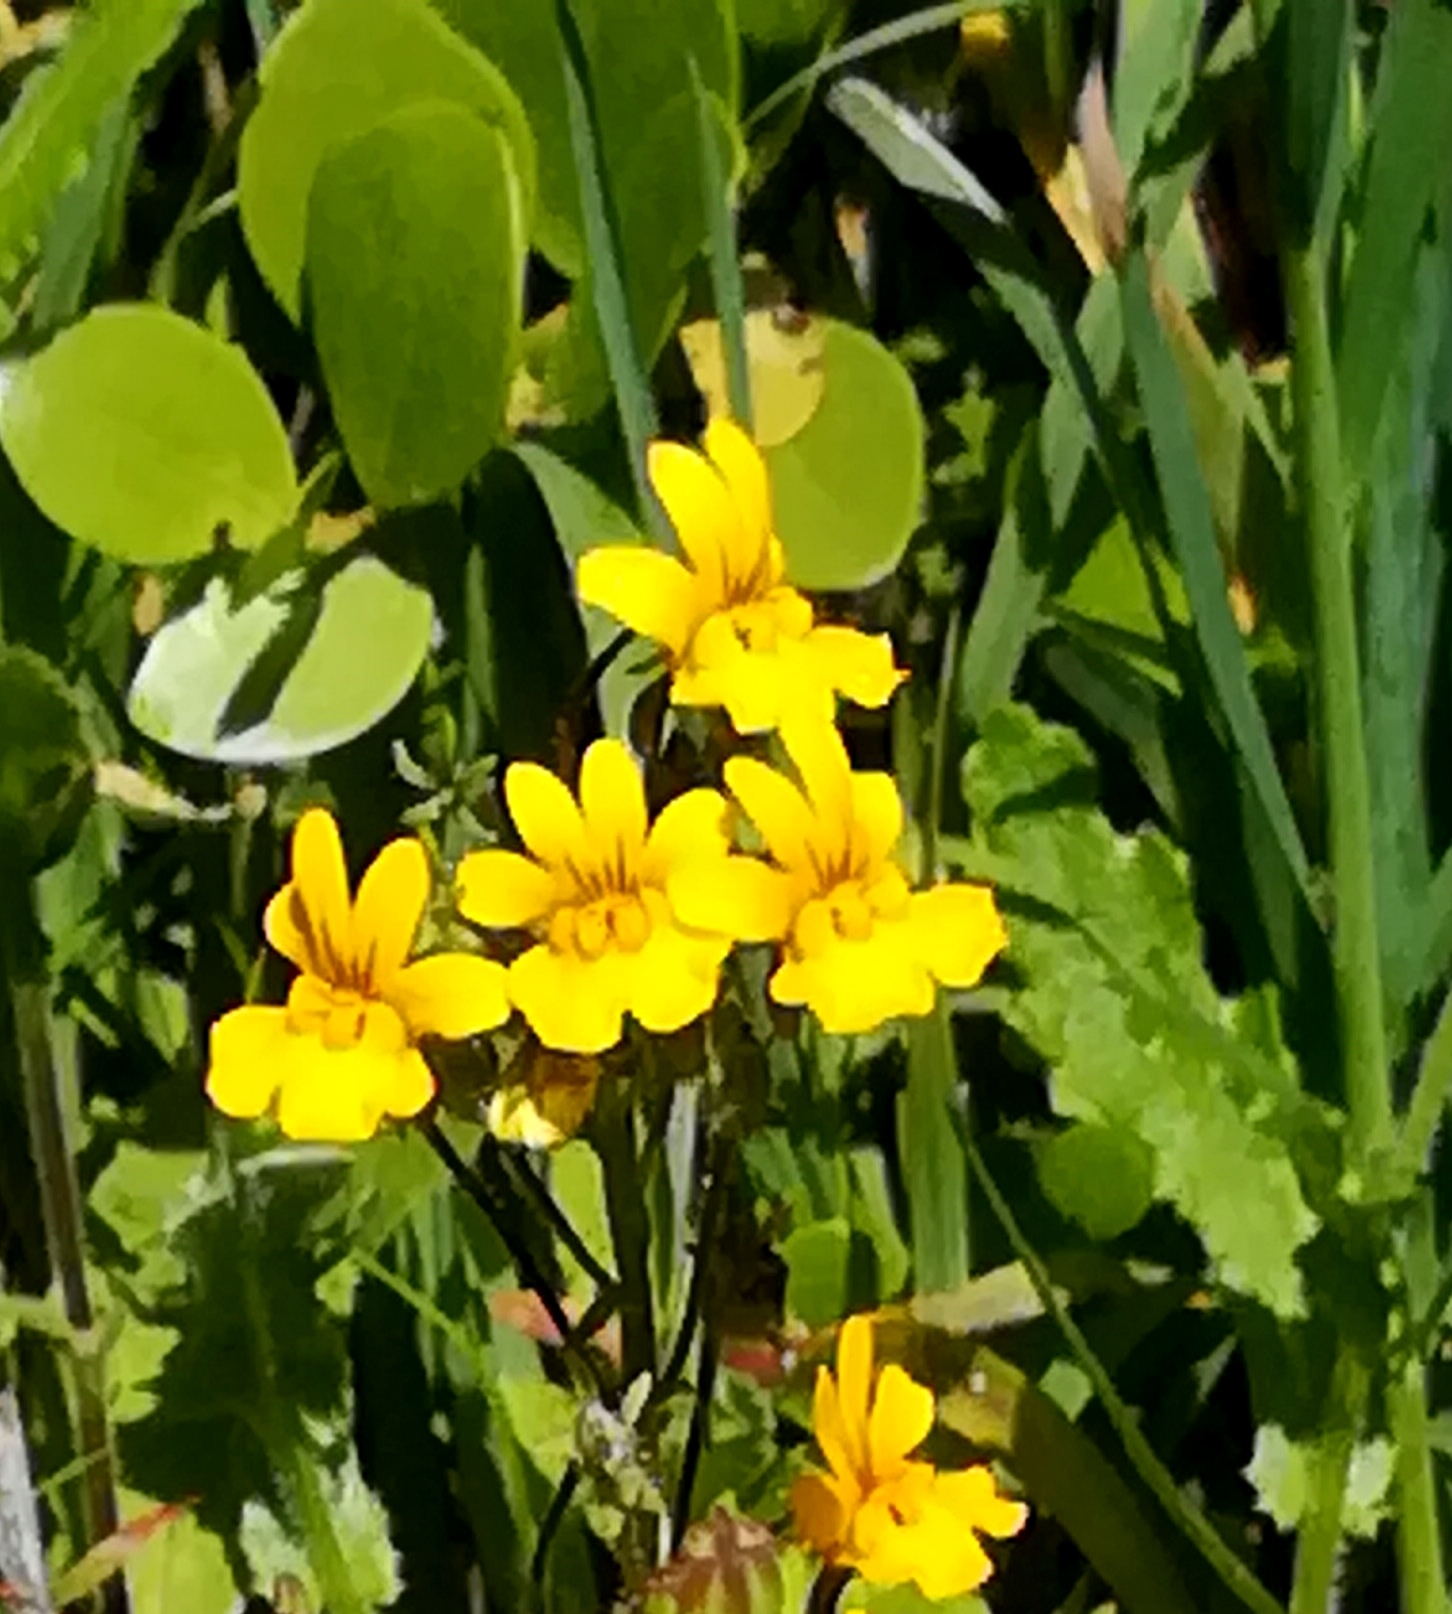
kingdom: Plantae
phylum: Tracheophyta
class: Magnoliopsida
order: Lamiales
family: Scrophulariaceae
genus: Nemesia
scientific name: Nemesia affinis
